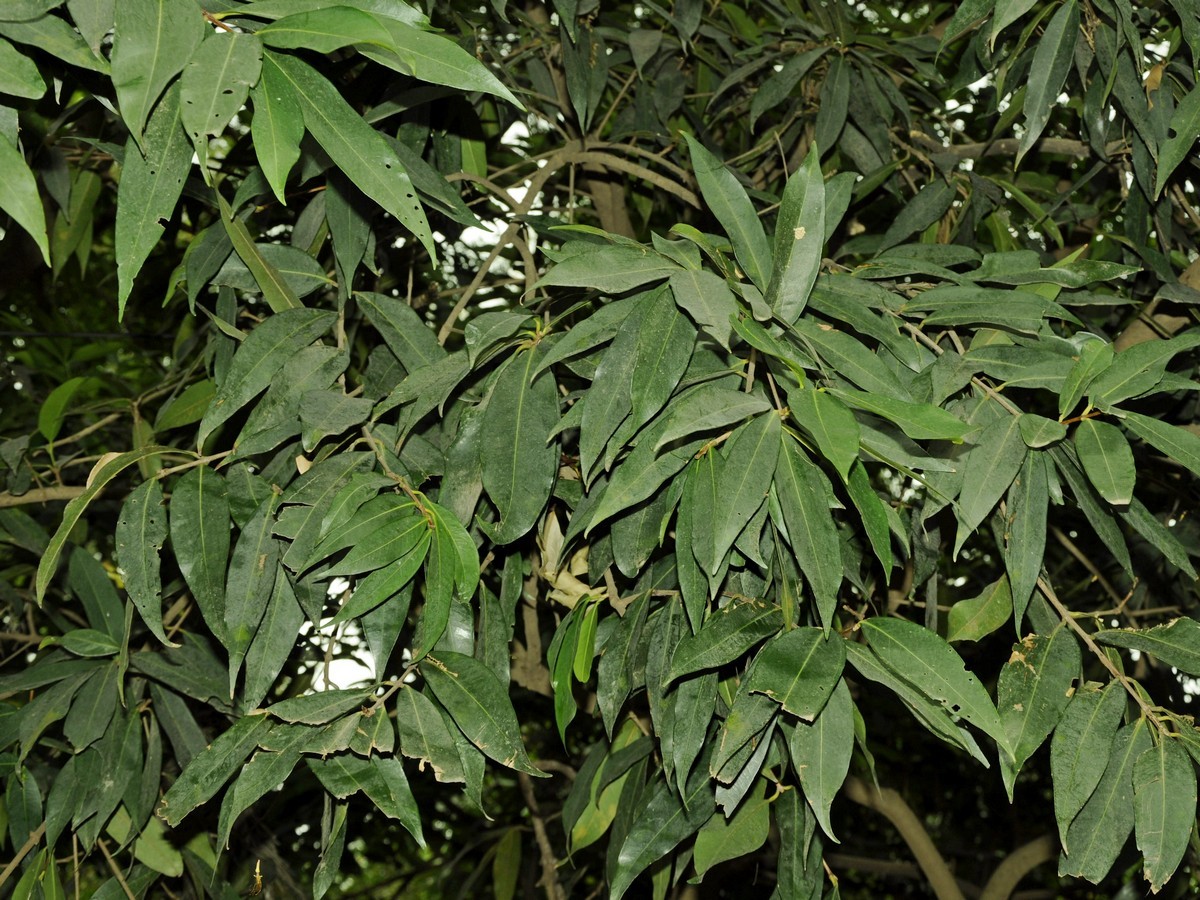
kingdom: Plantae
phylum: Tracheophyta
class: Magnoliopsida
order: Myrtales
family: Myrtaceae
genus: Syzygium
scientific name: Syzygium jambos
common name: Malabar plum
